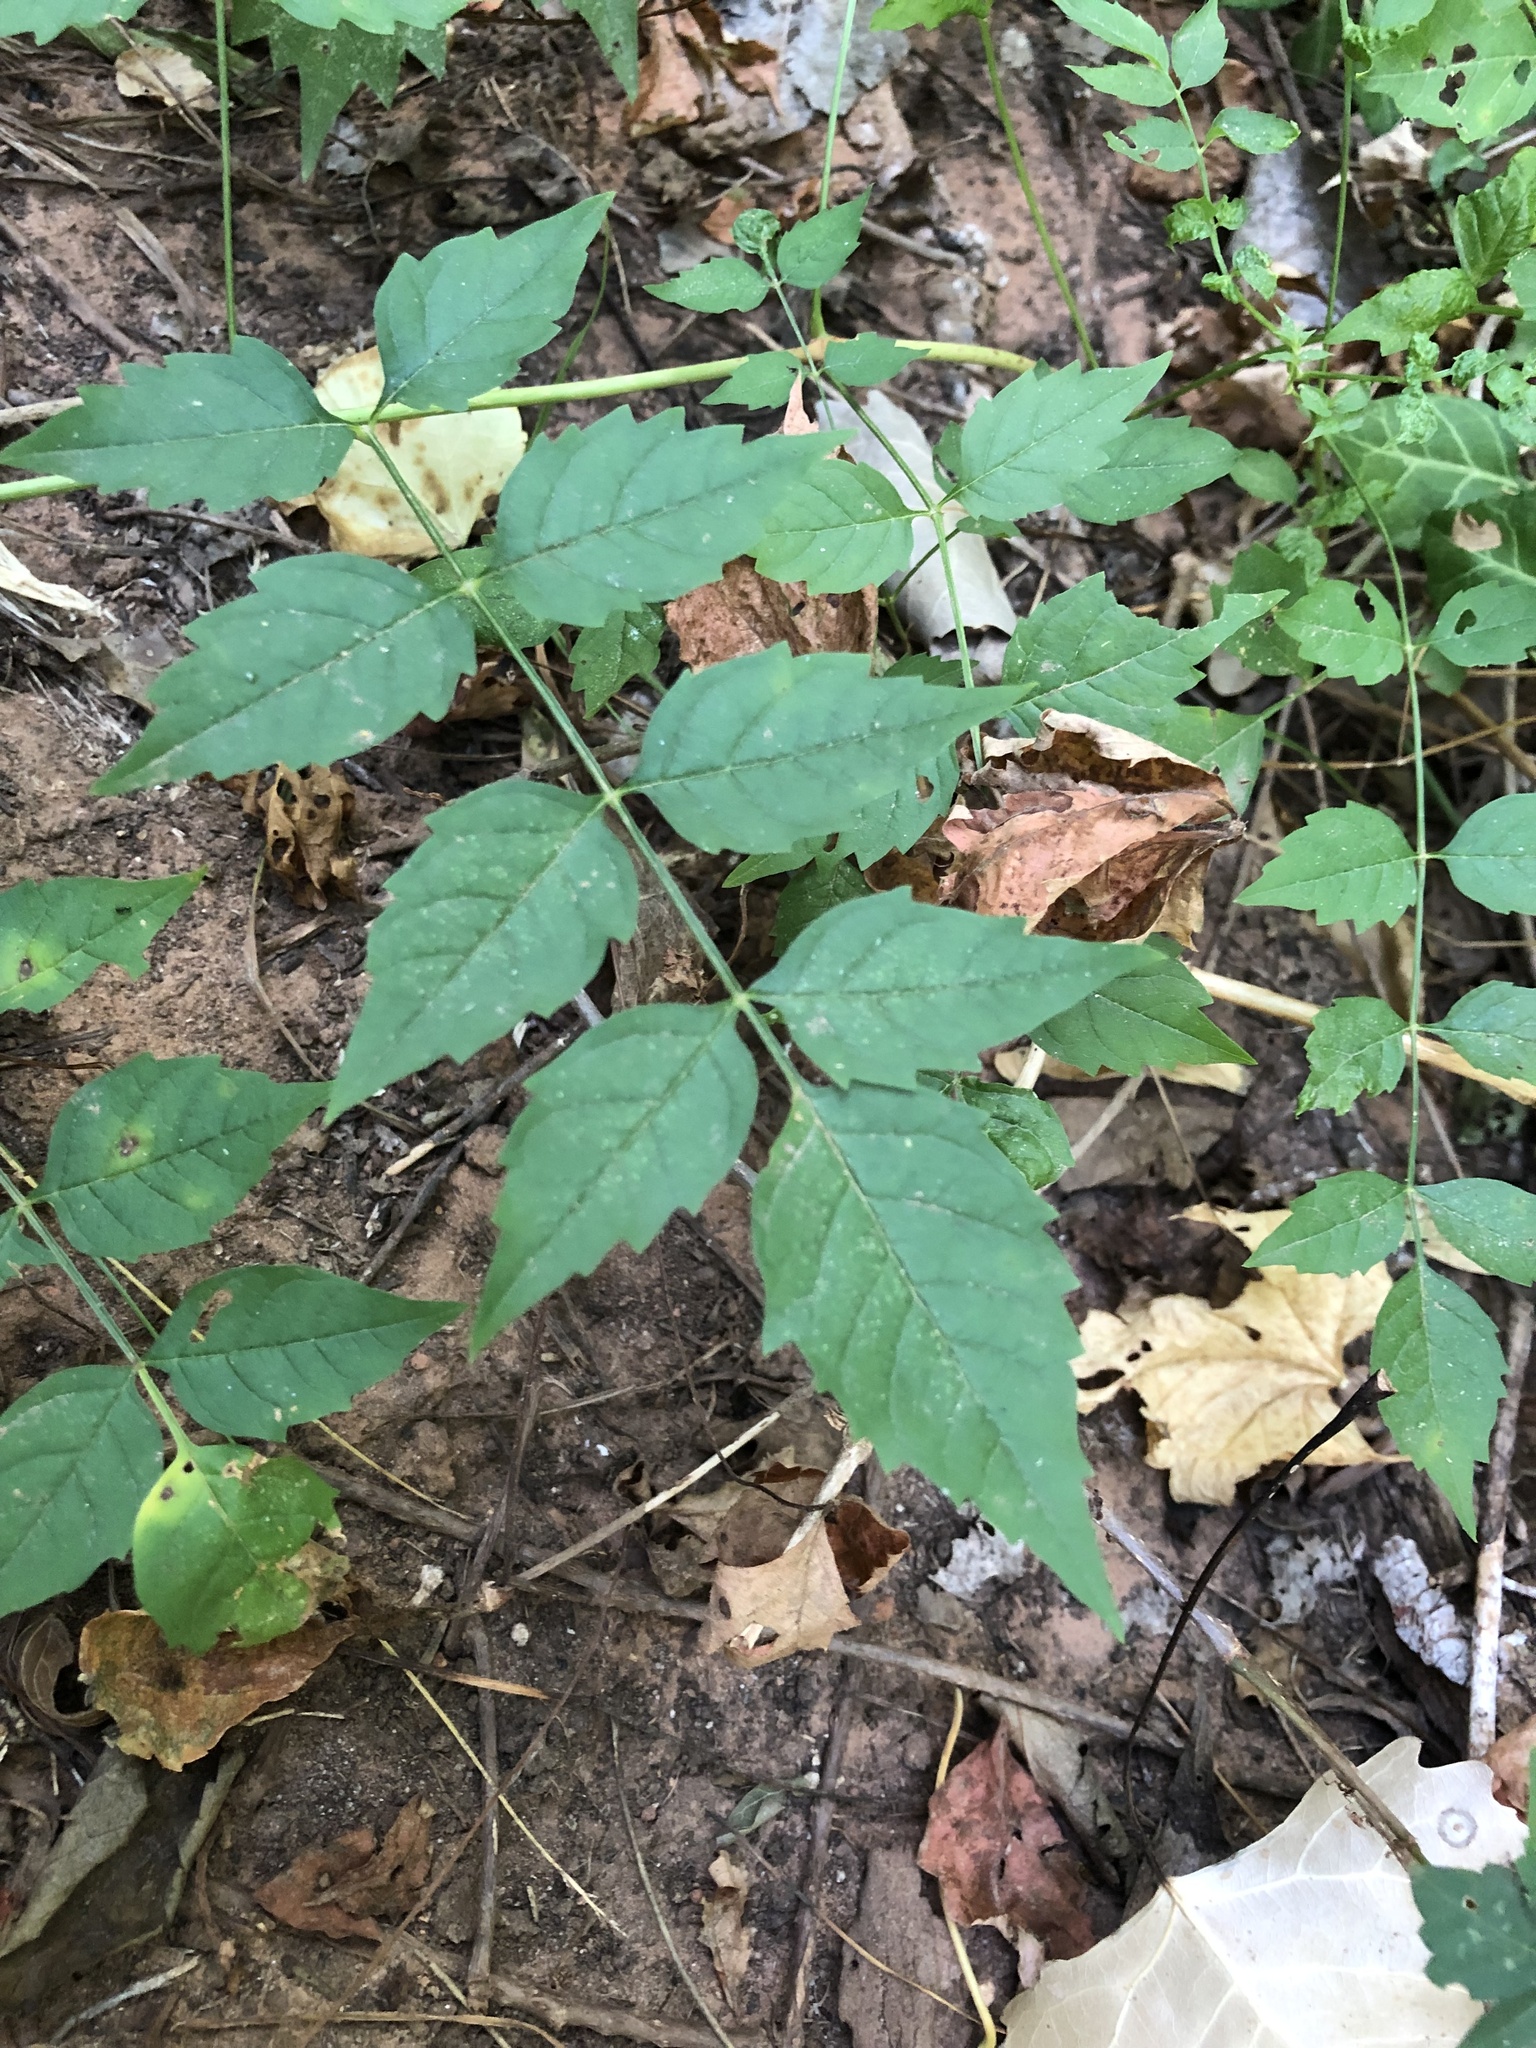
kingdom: Plantae
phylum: Tracheophyta
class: Magnoliopsida
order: Lamiales
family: Bignoniaceae
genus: Campsis
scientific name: Campsis radicans
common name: Trumpet-creeper
